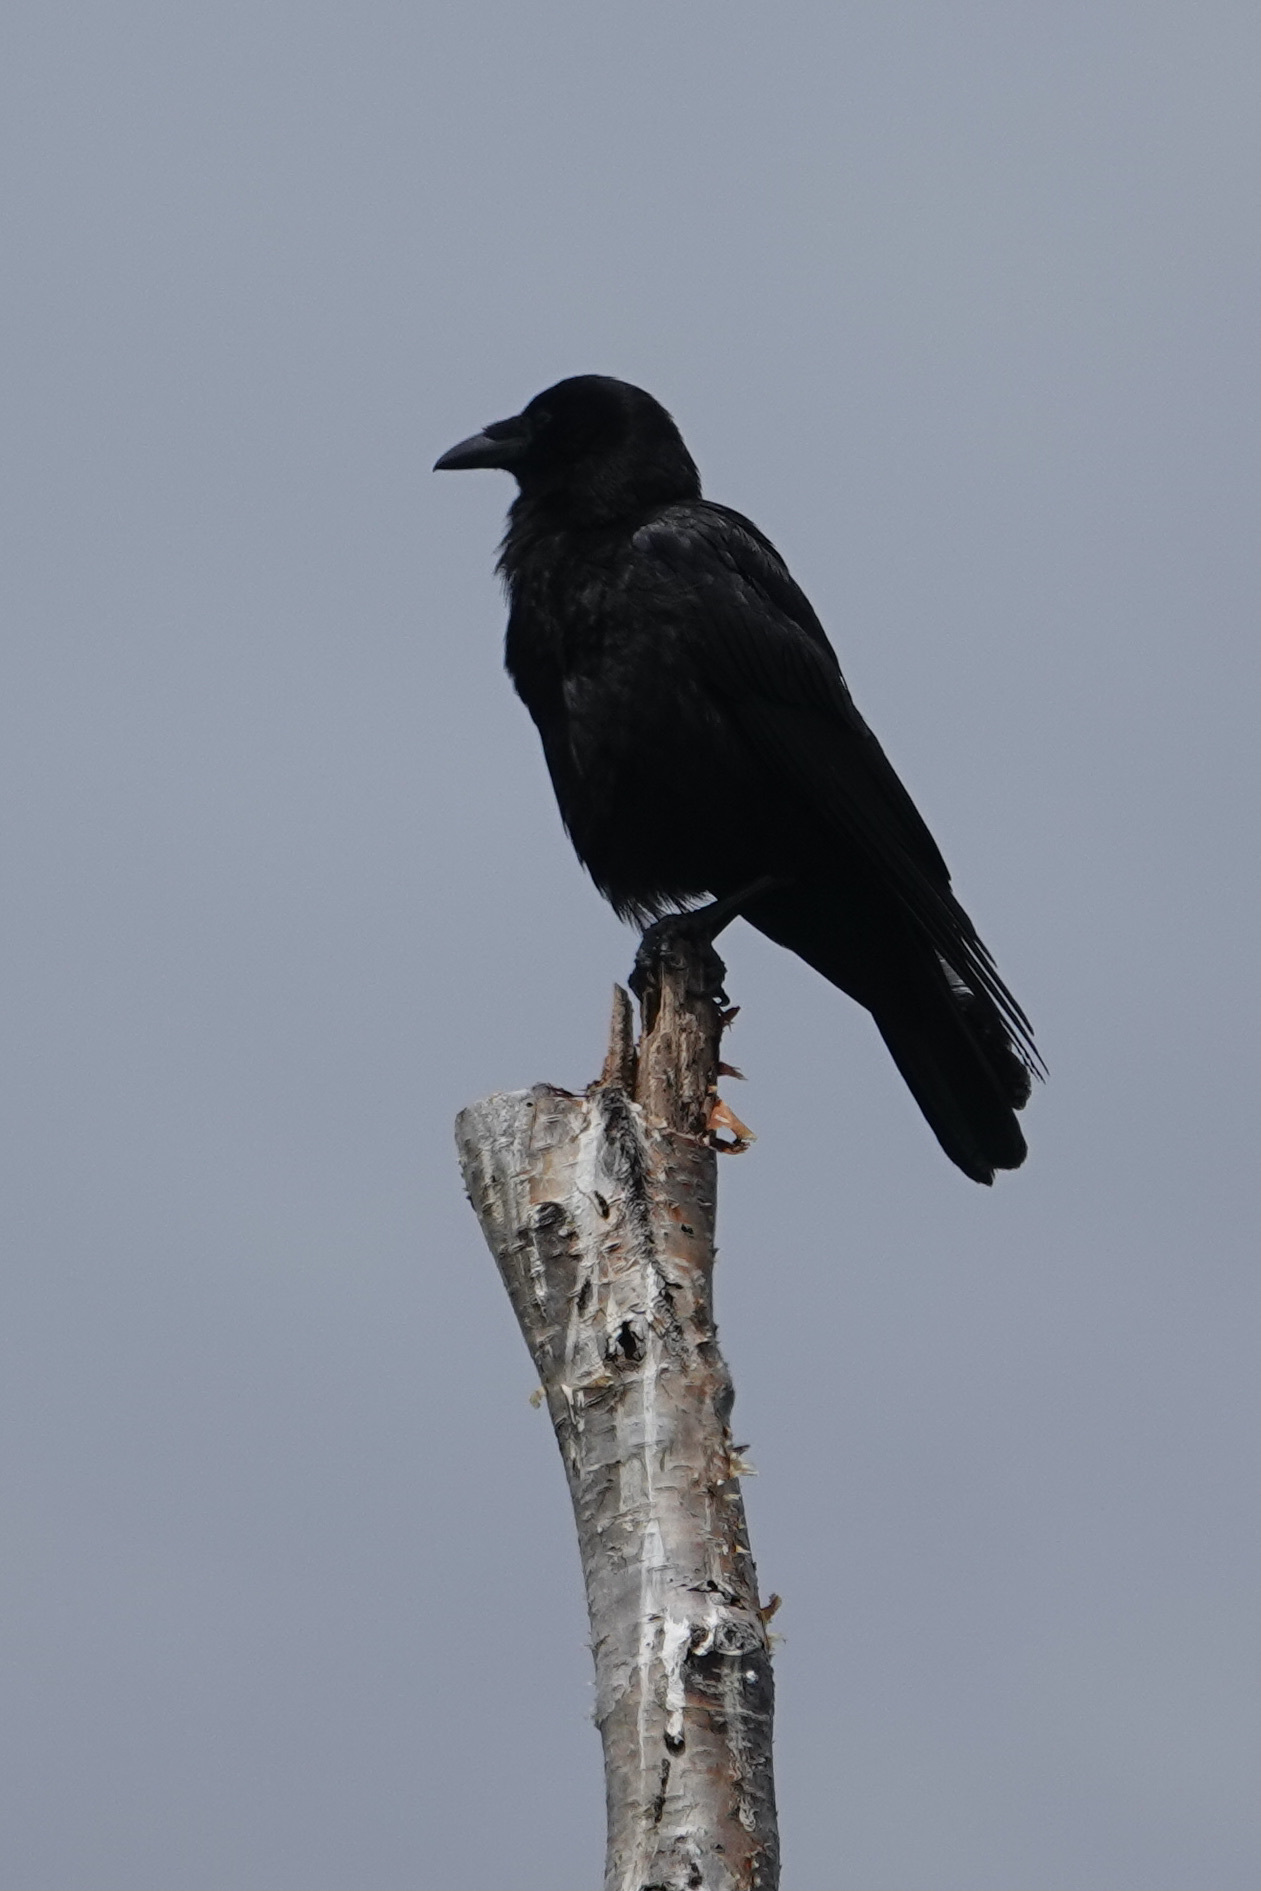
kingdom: Animalia
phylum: Chordata
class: Aves
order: Passeriformes
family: Corvidae
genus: Corvus
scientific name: Corvus brachyrhynchos
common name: American crow
